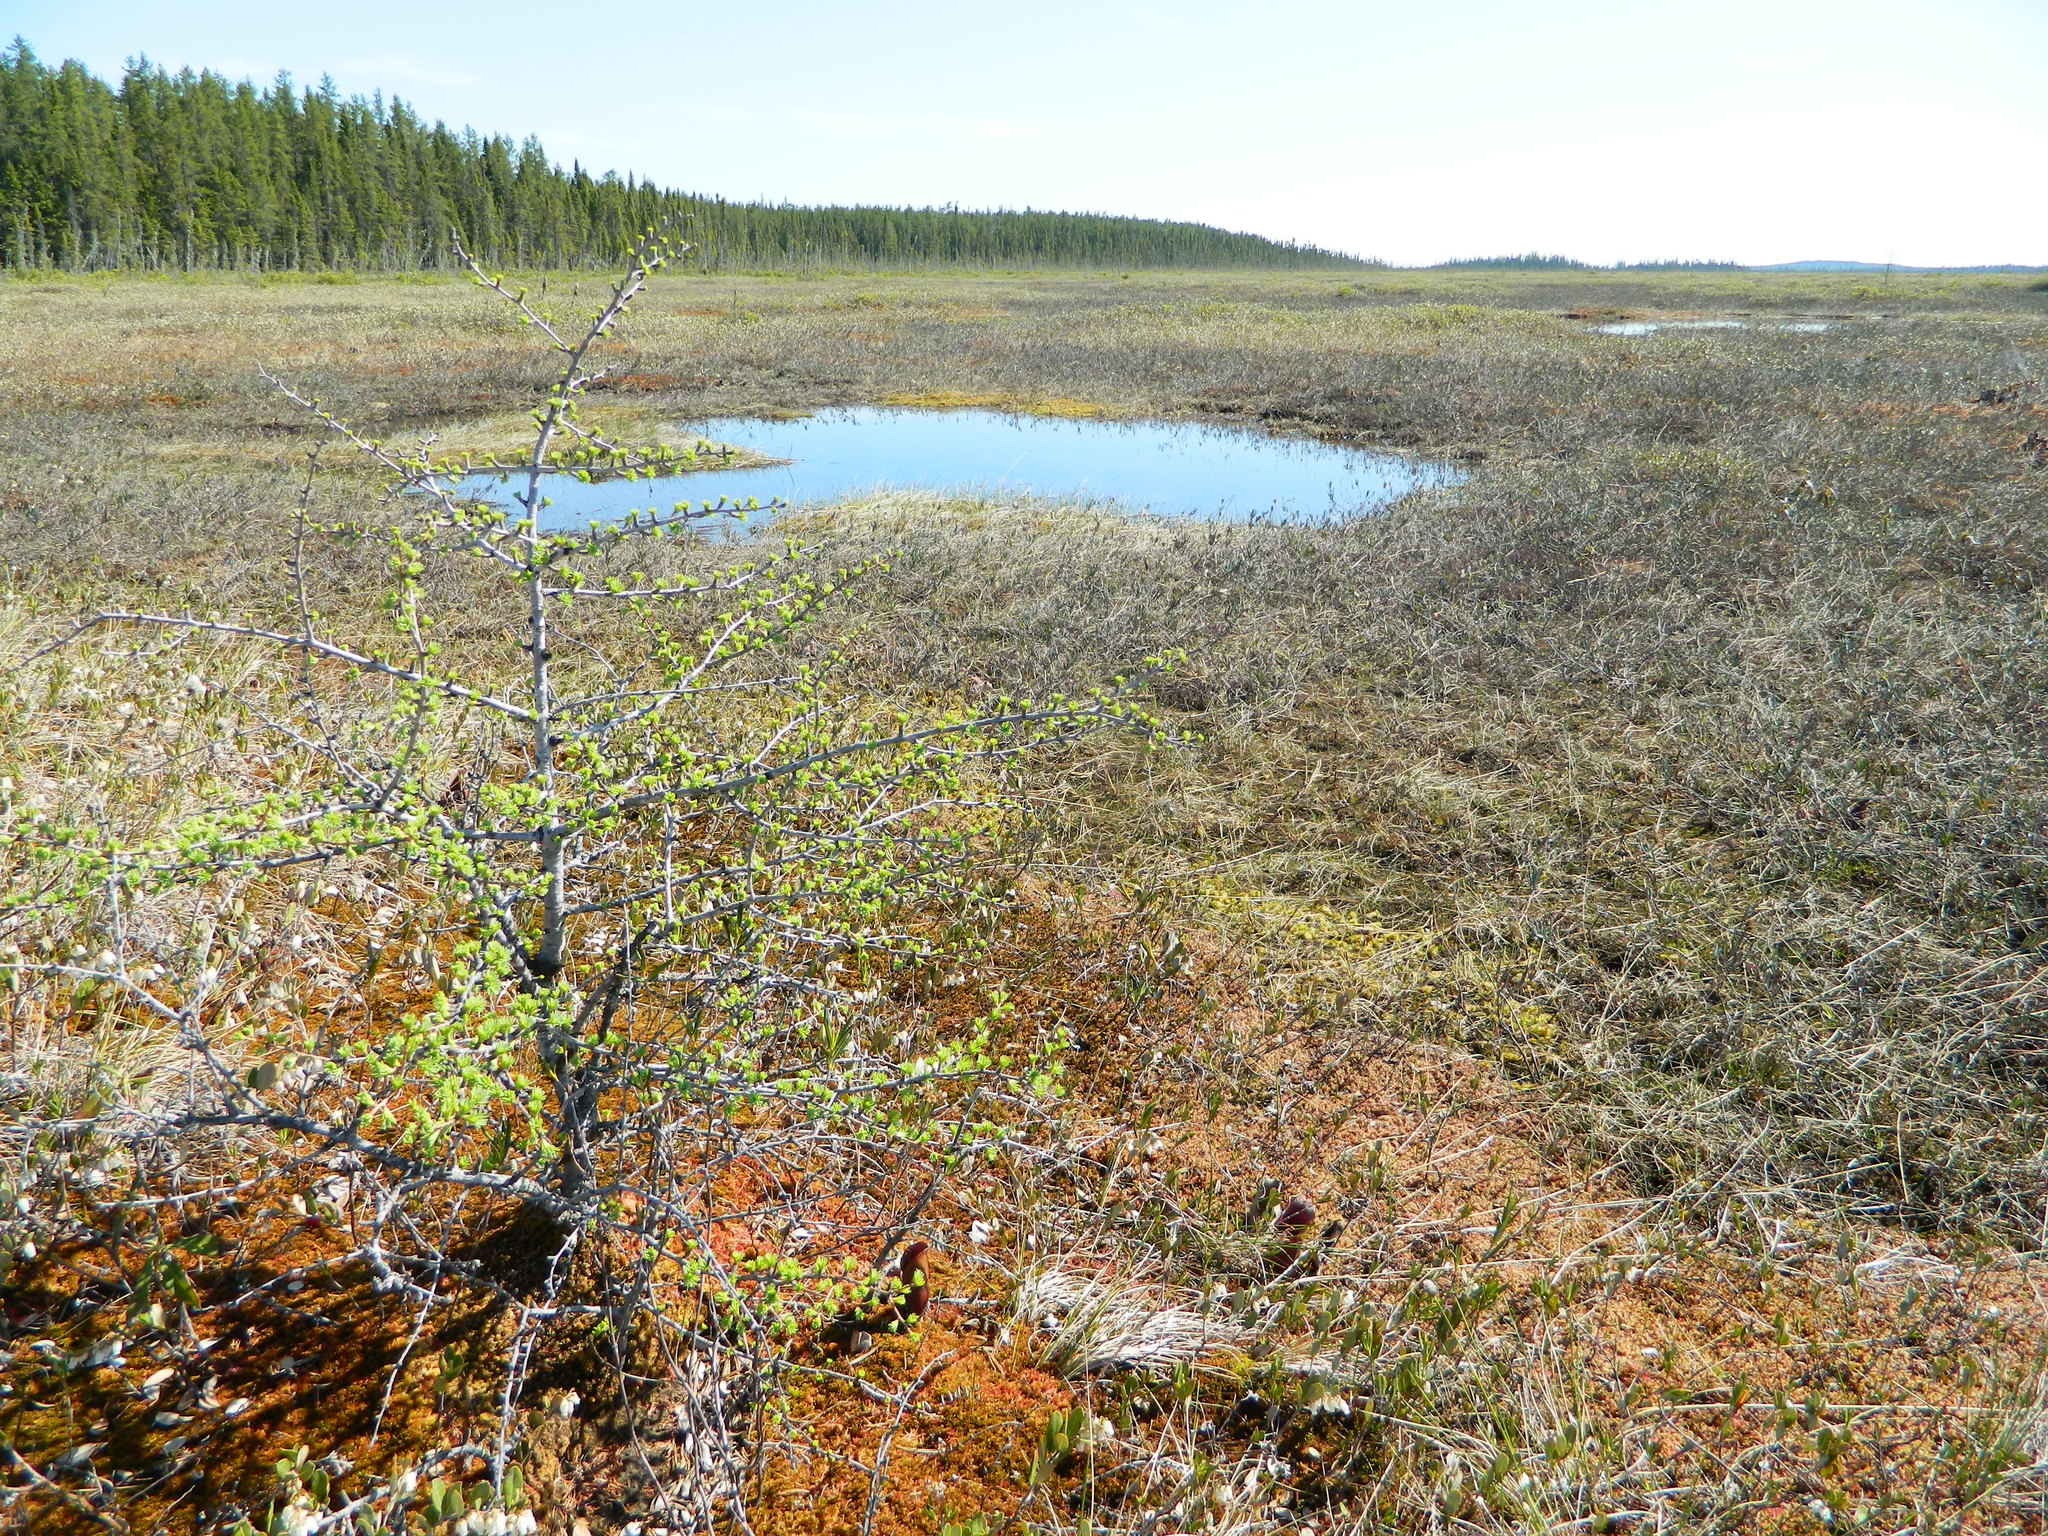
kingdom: Plantae
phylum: Tracheophyta
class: Pinopsida
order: Pinales
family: Pinaceae
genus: Larix
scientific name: Larix laricina
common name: American larch
